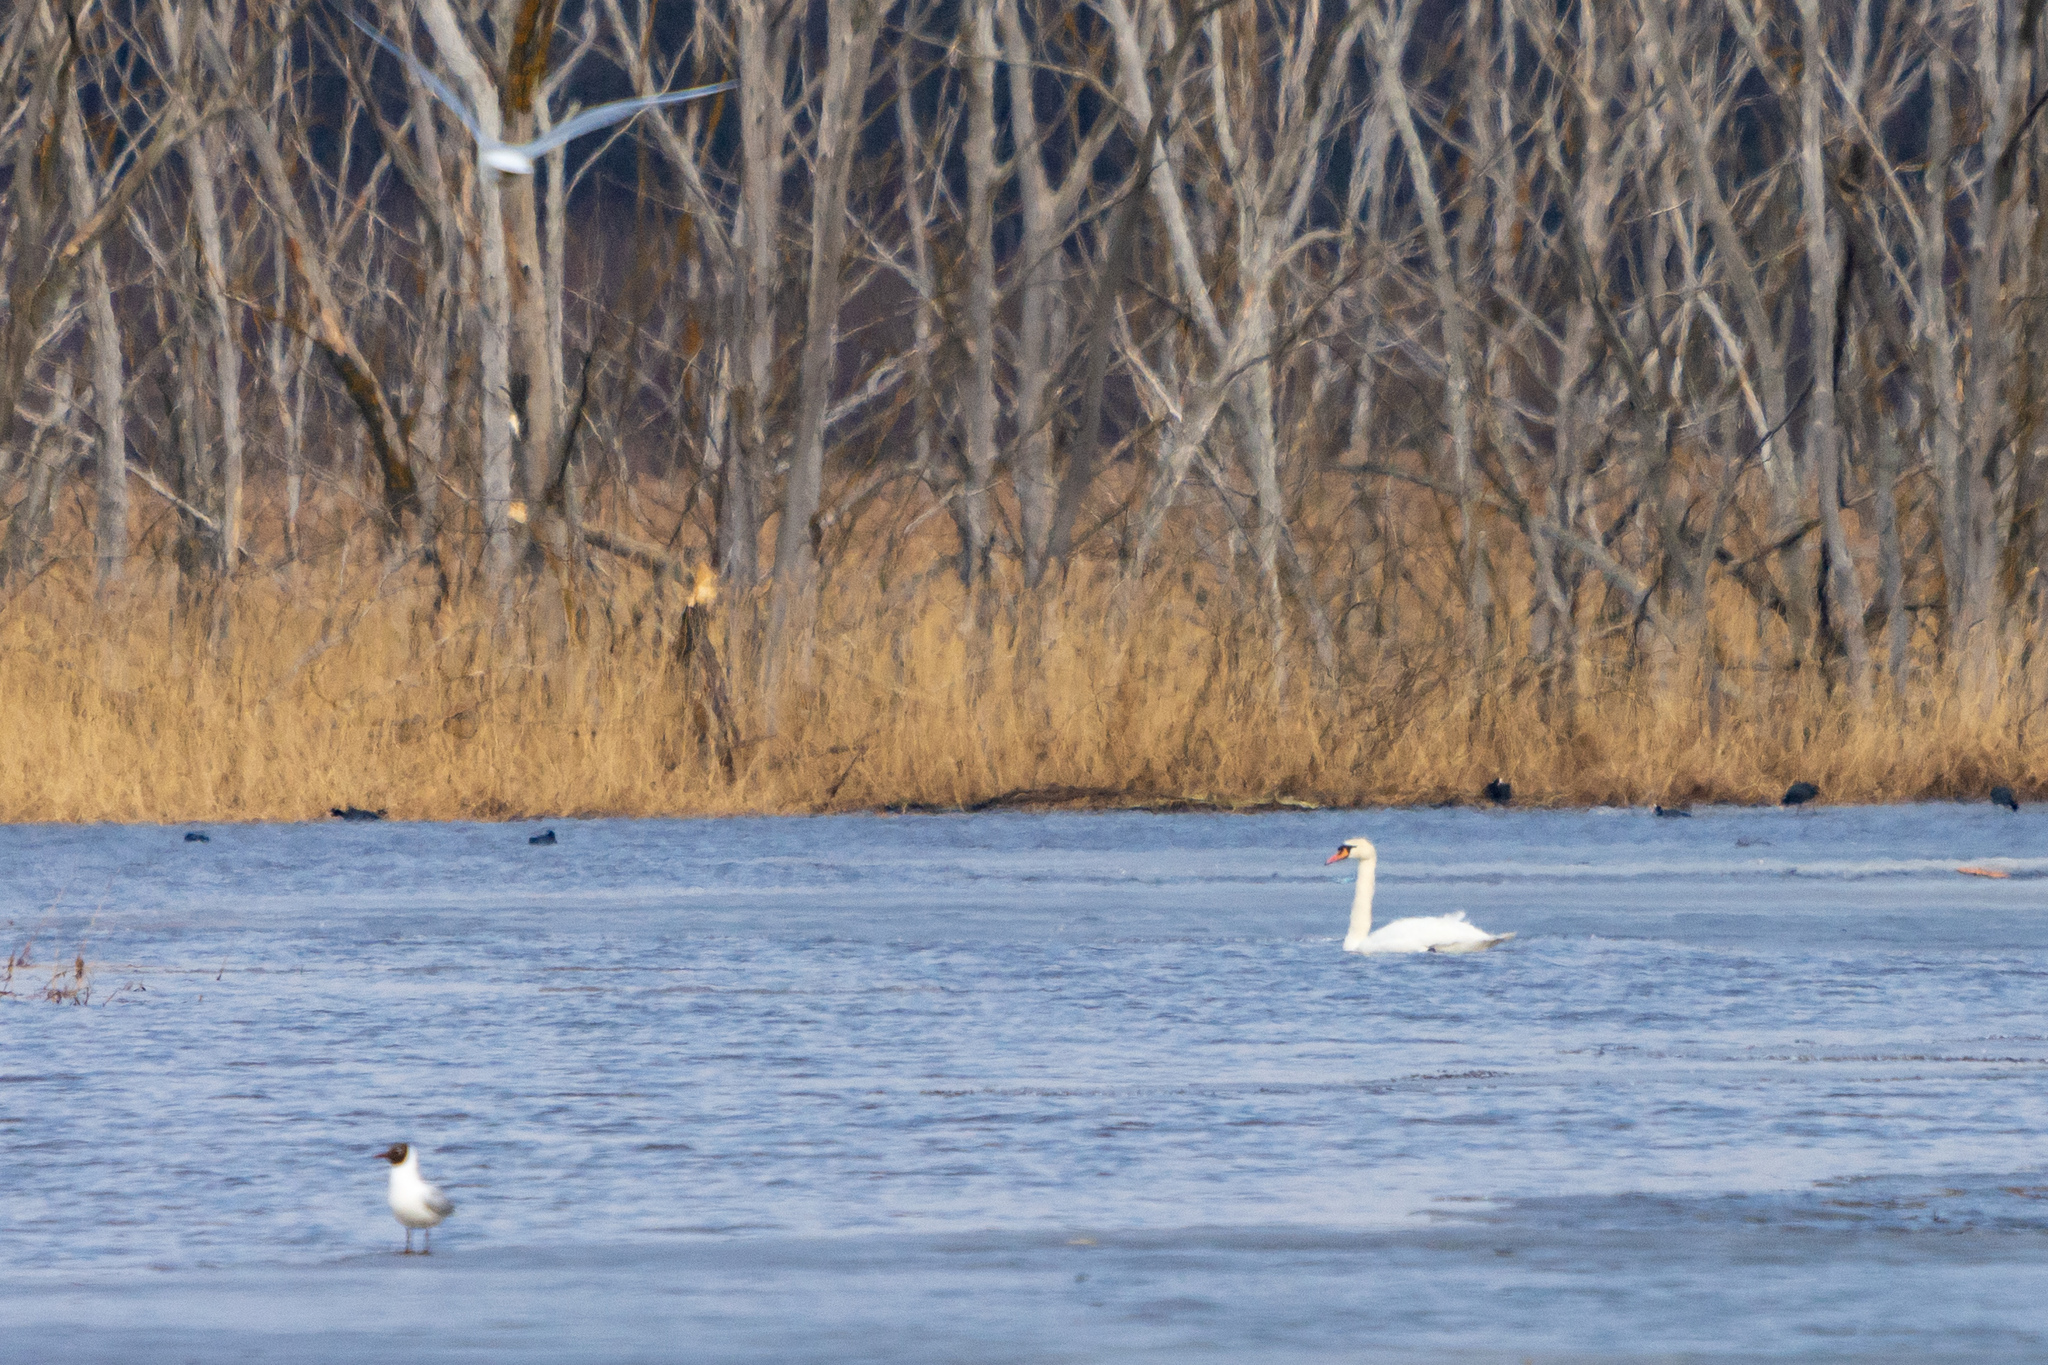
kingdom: Animalia
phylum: Chordata
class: Aves
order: Anseriformes
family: Anatidae
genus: Cygnus
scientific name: Cygnus olor
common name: Mute swan
